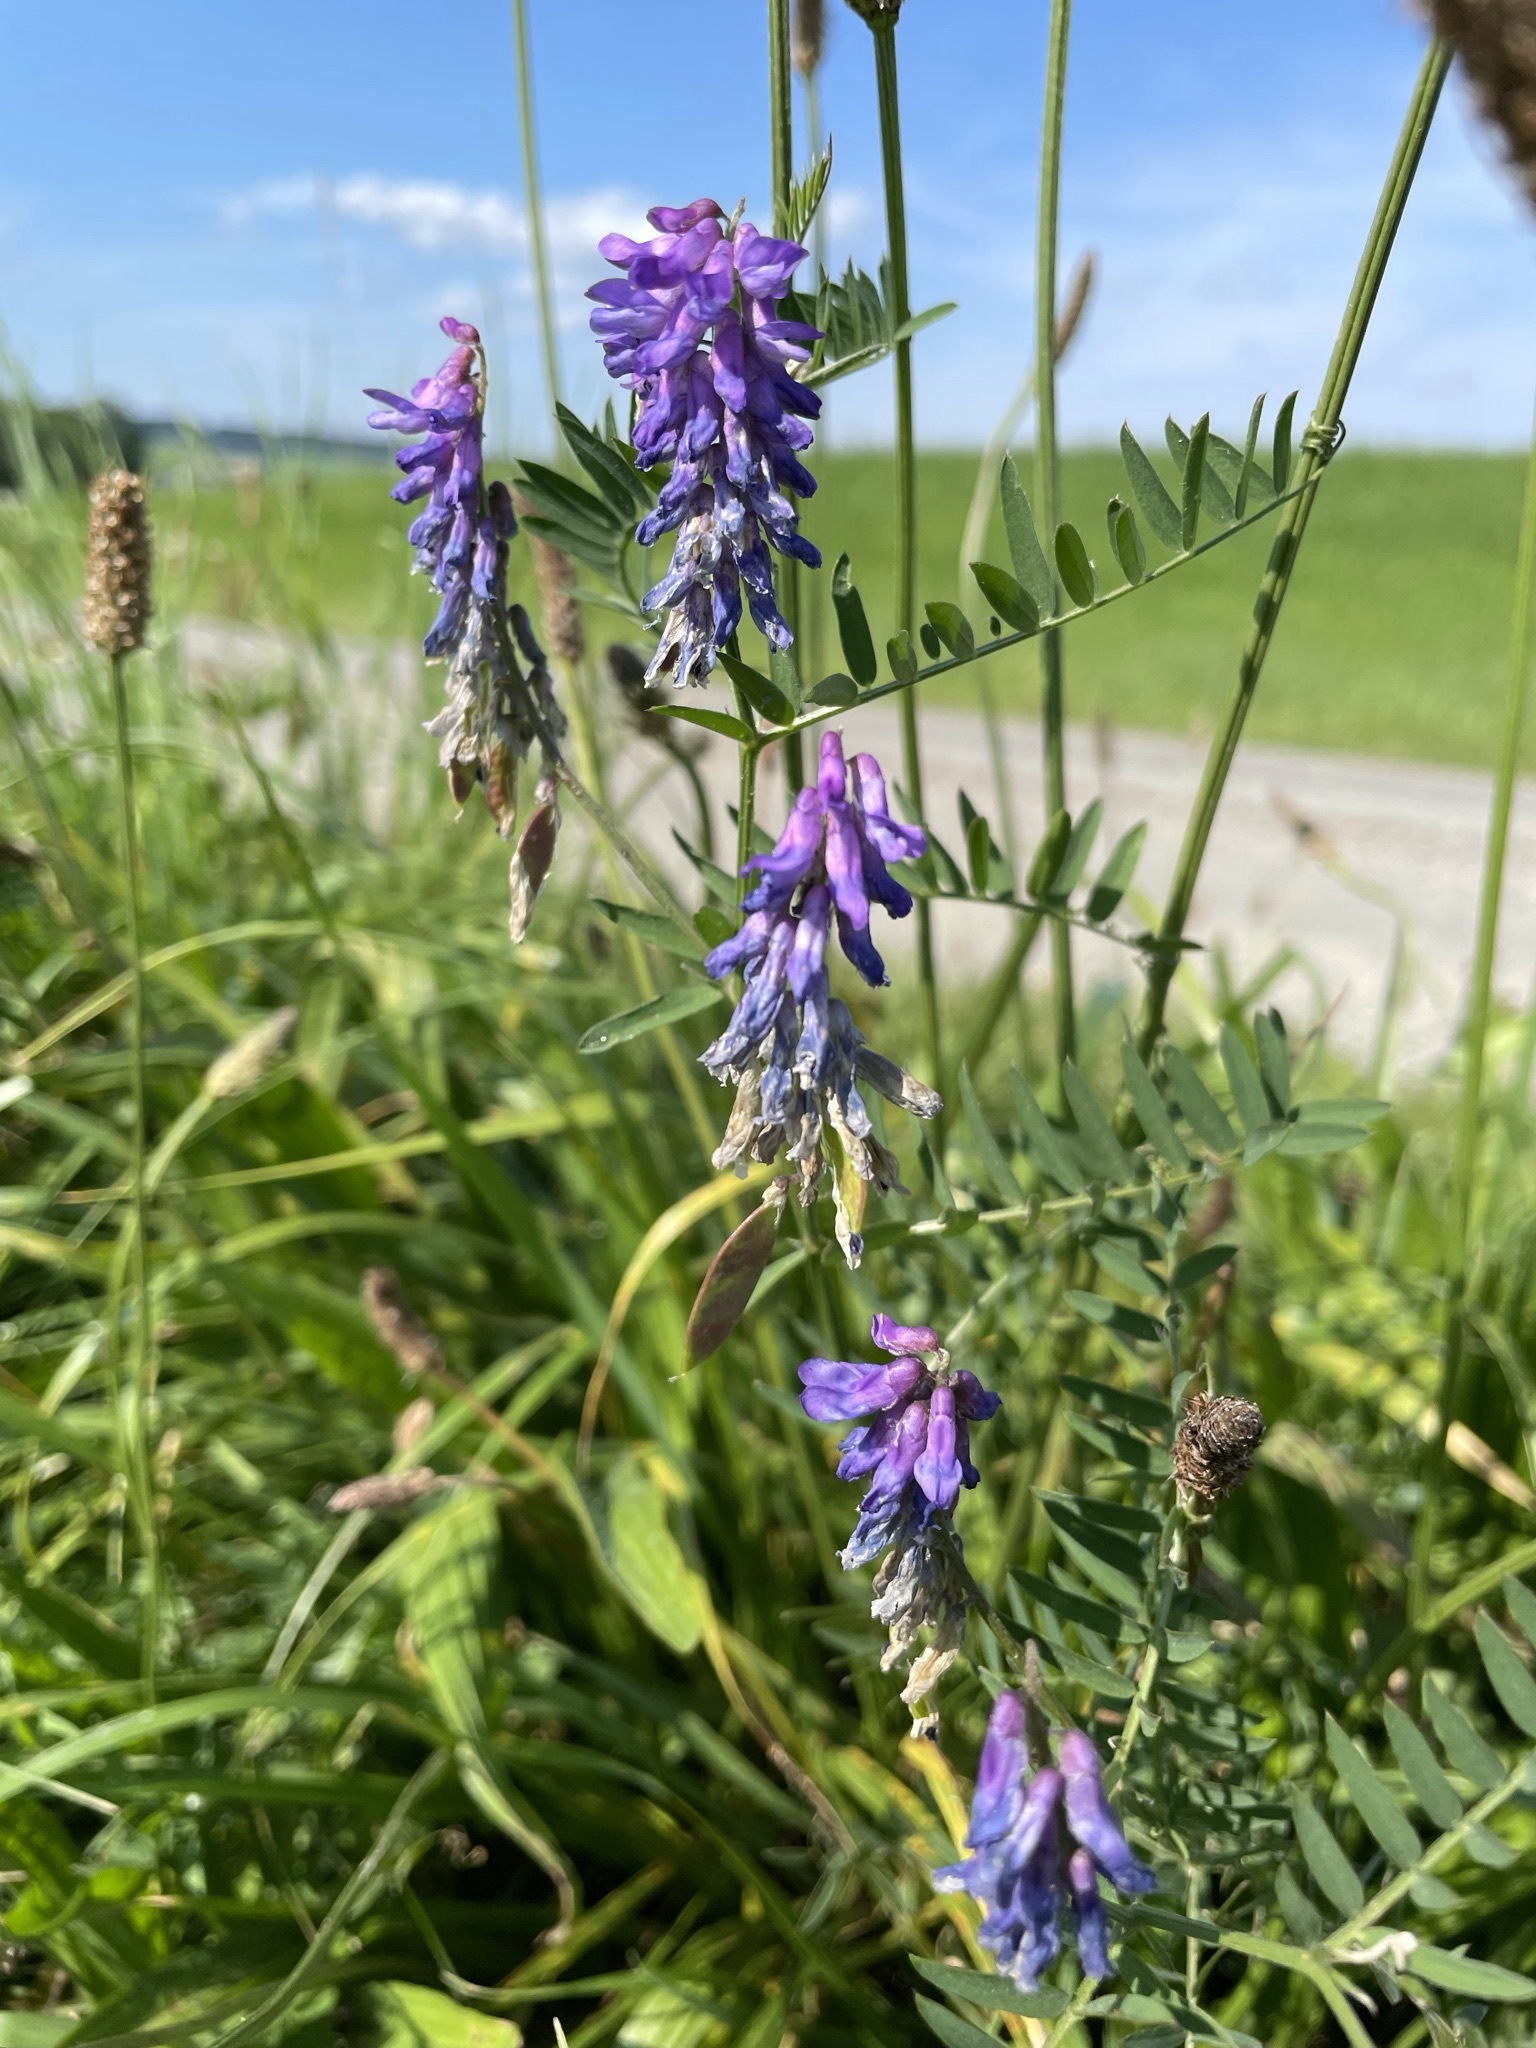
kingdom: Plantae
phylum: Tracheophyta
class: Magnoliopsida
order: Fabales
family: Fabaceae
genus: Vicia
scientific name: Vicia cracca
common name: Bird vetch
